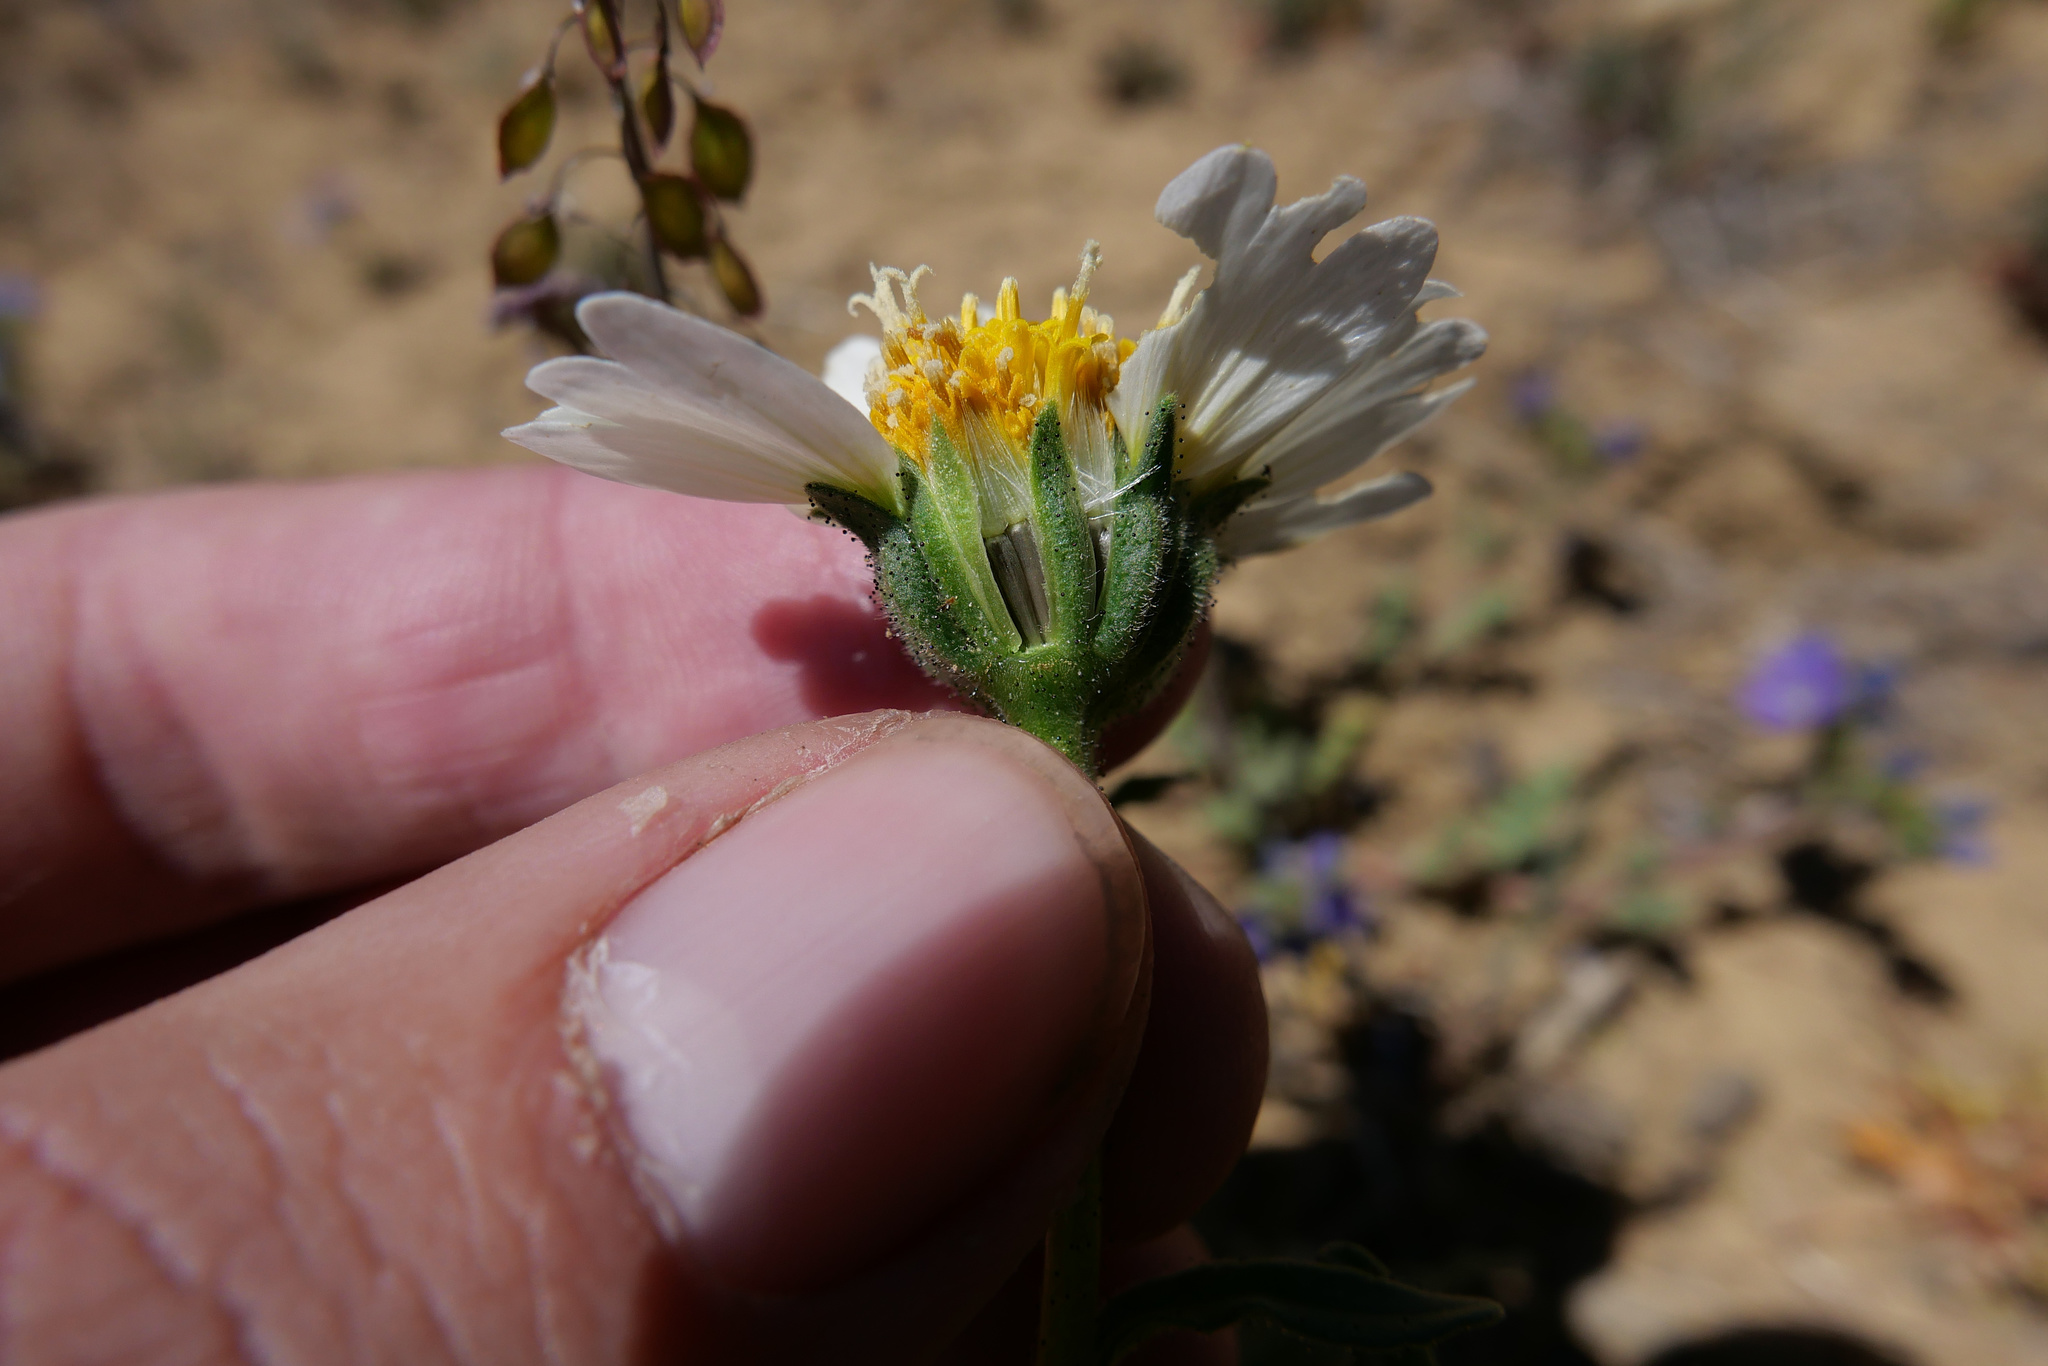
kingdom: Plantae
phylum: Tracheophyta
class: Magnoliopsida
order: Asterales
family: Asteraceae
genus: Layia
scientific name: Layia heterotricha
